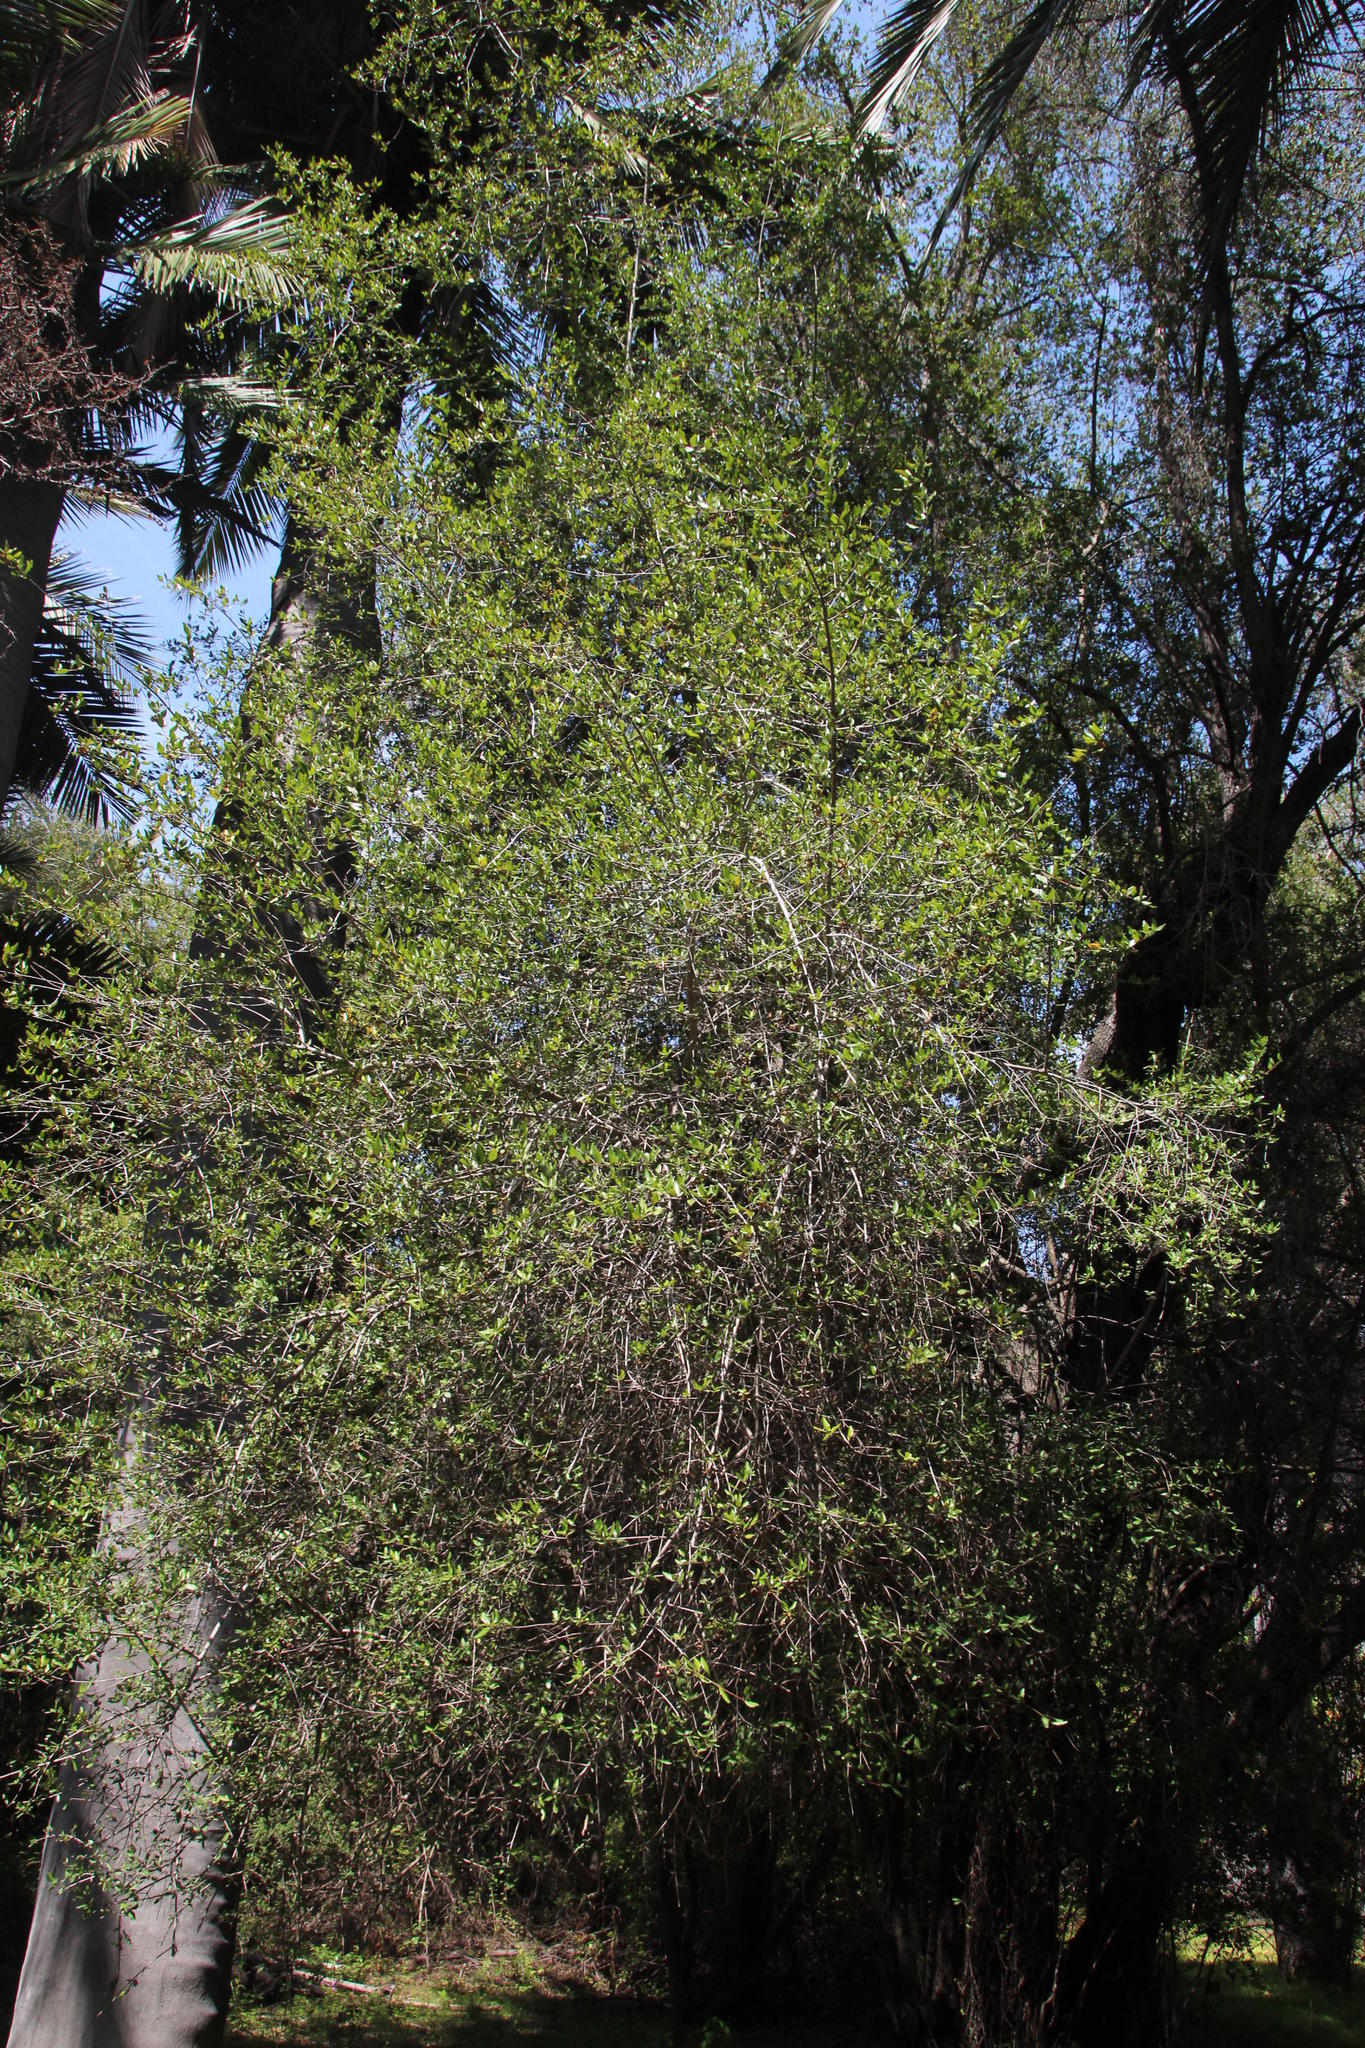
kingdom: Plantae
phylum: Tracheophyta
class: Magnoliopsida
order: Oxalidales
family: Elaeocarpaceae
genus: Crinodendron
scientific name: Crinodendron patagua
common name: Lily-of-the-valley-tree
